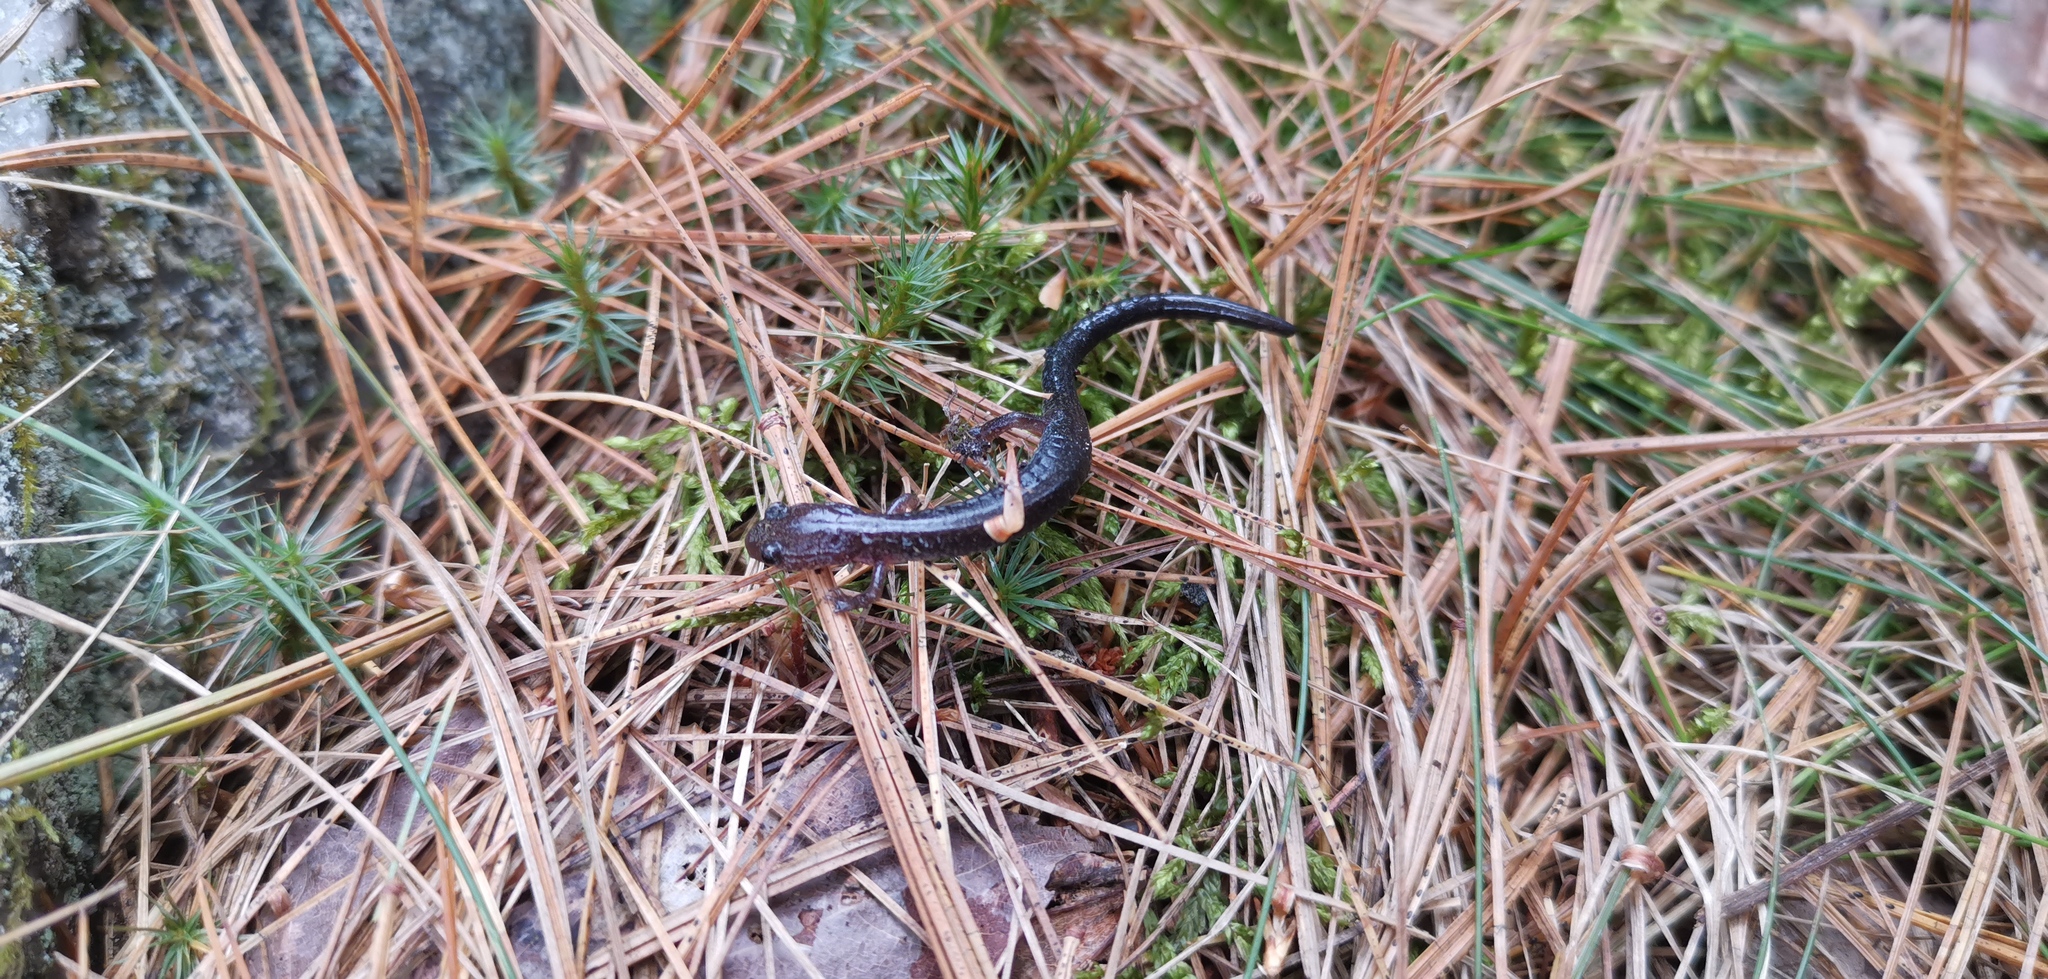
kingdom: Animalia
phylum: Chordata
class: Amphibia
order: Caudata
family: Plethodontidae
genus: Plethodon
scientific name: Plethodon cinereus
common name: Redback salamander
